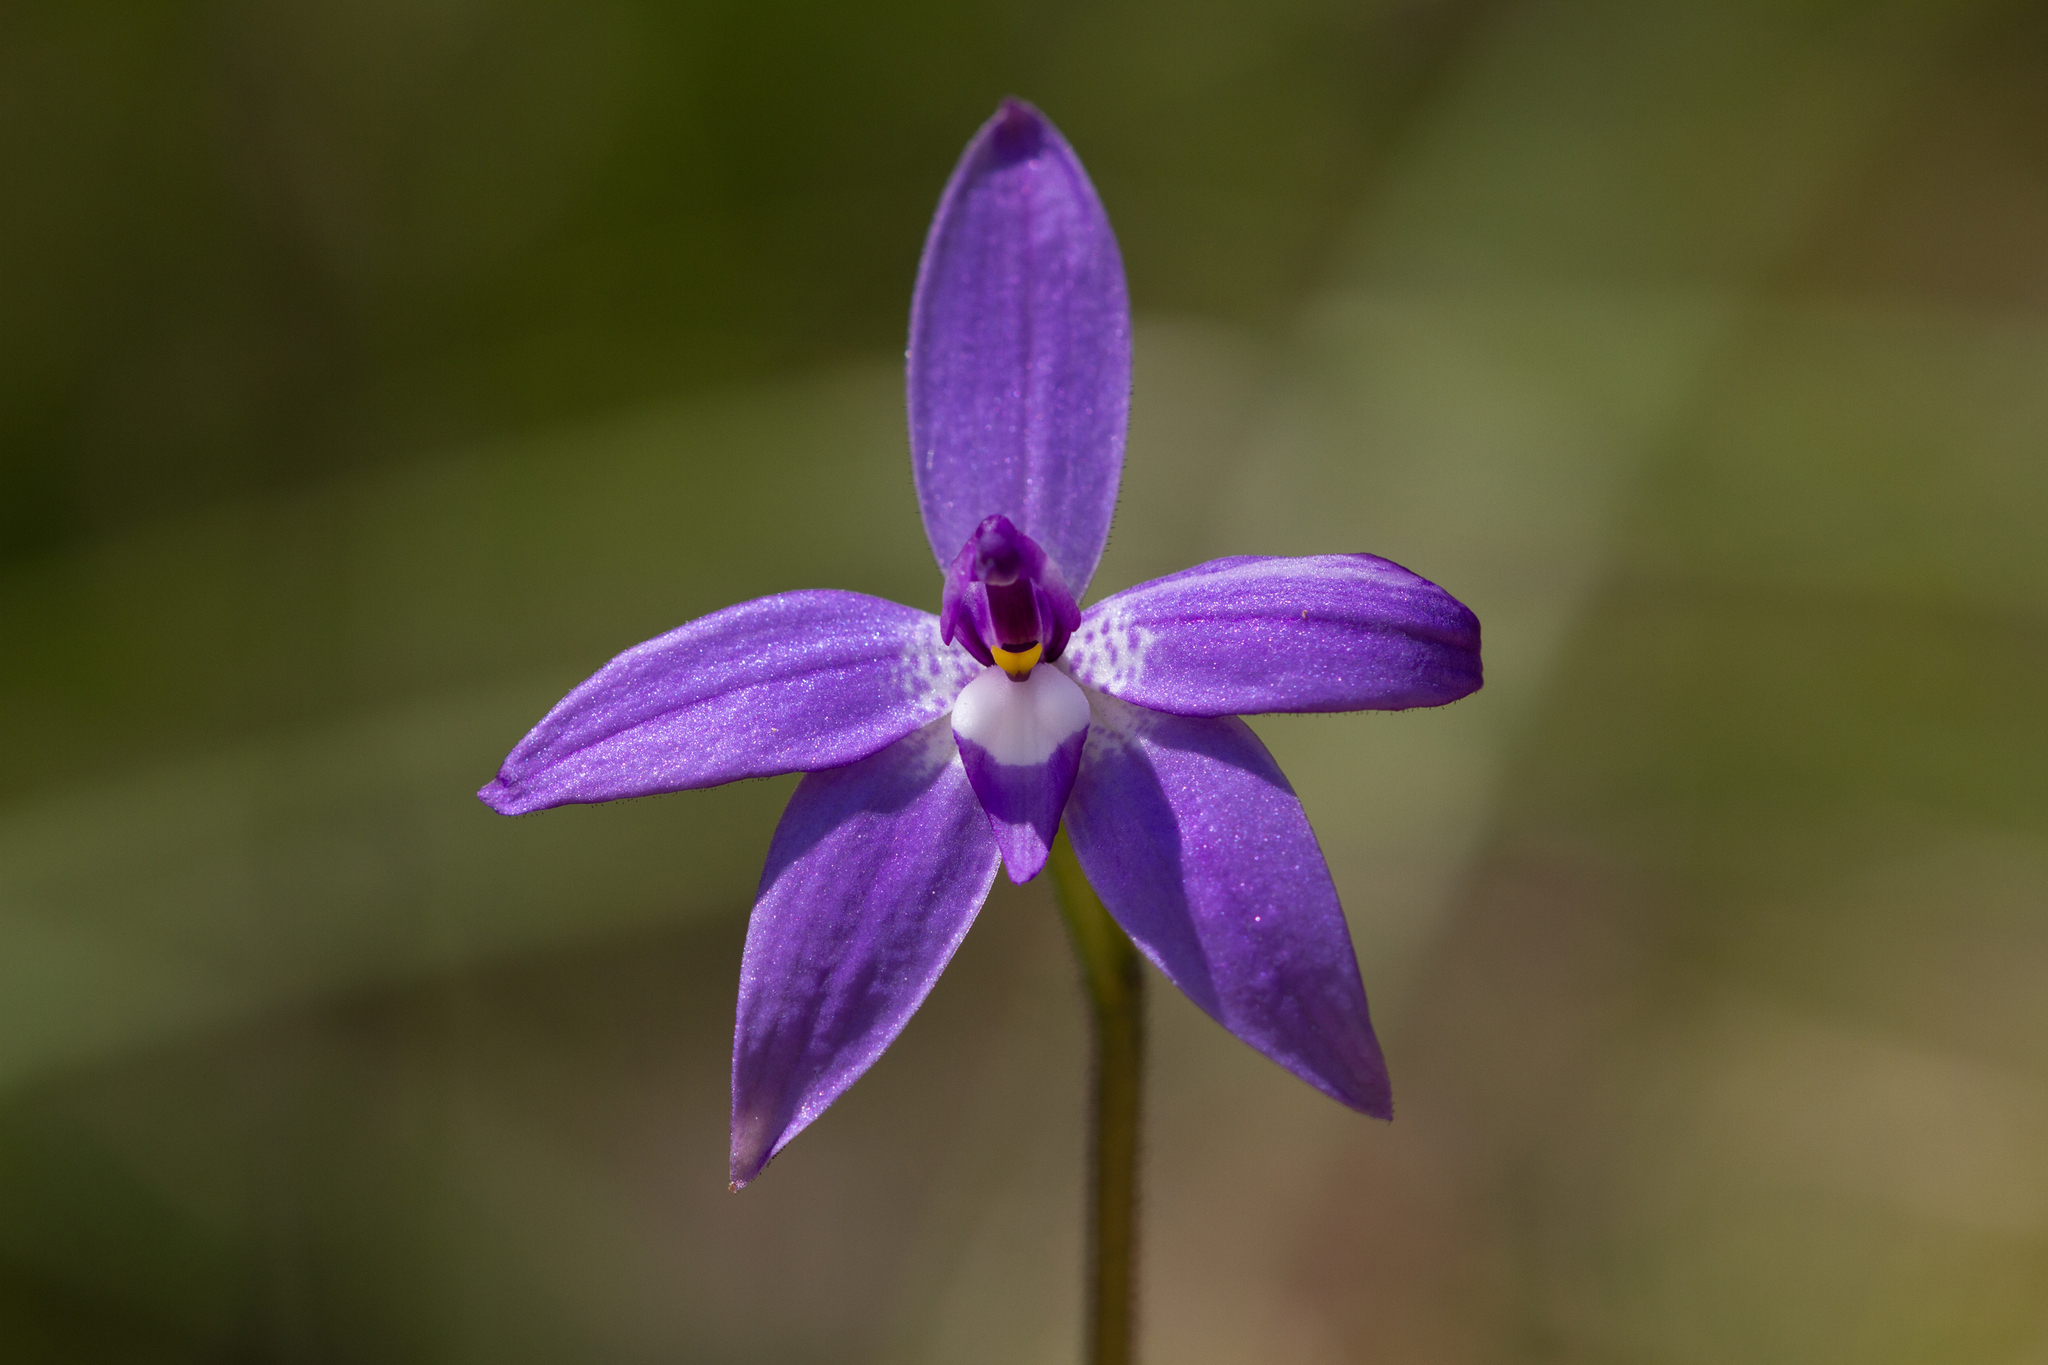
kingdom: Plantae
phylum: Tracheophyta
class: Liliopsida
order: Asparagales
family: Orchidaceae
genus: Caladenia
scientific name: Caladenia major
